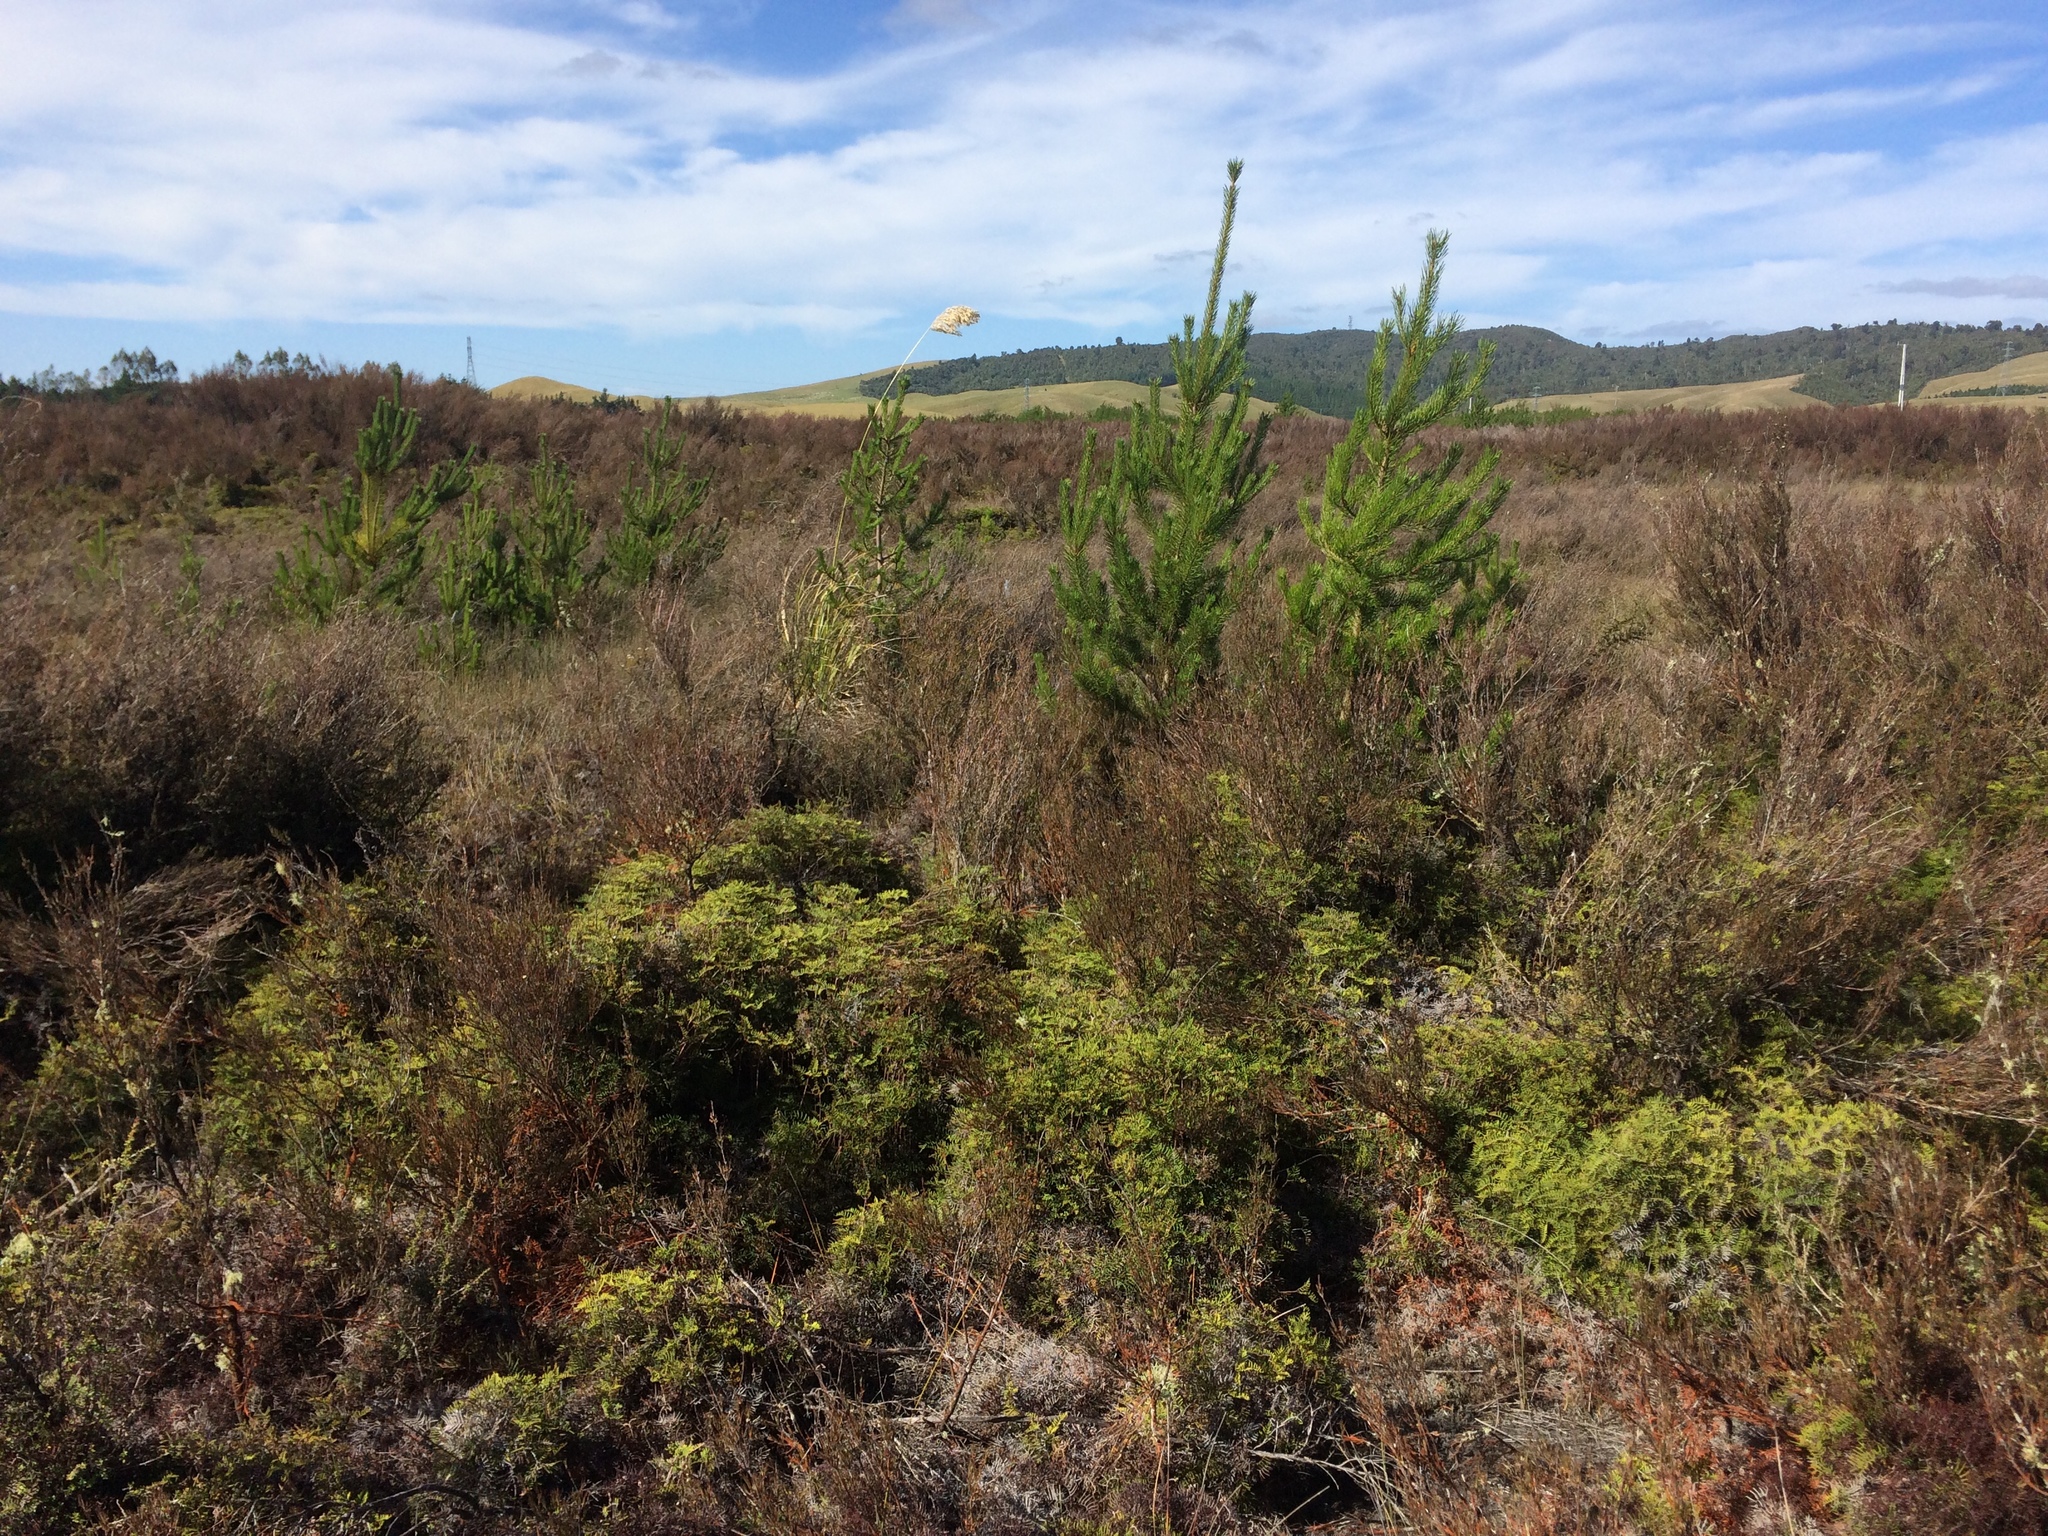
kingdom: Plantae
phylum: Tracheophyta
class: Pinopsida
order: Pinales
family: Pinaceae
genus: Pinus
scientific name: Pinus contorta
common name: Lodgepole pine
